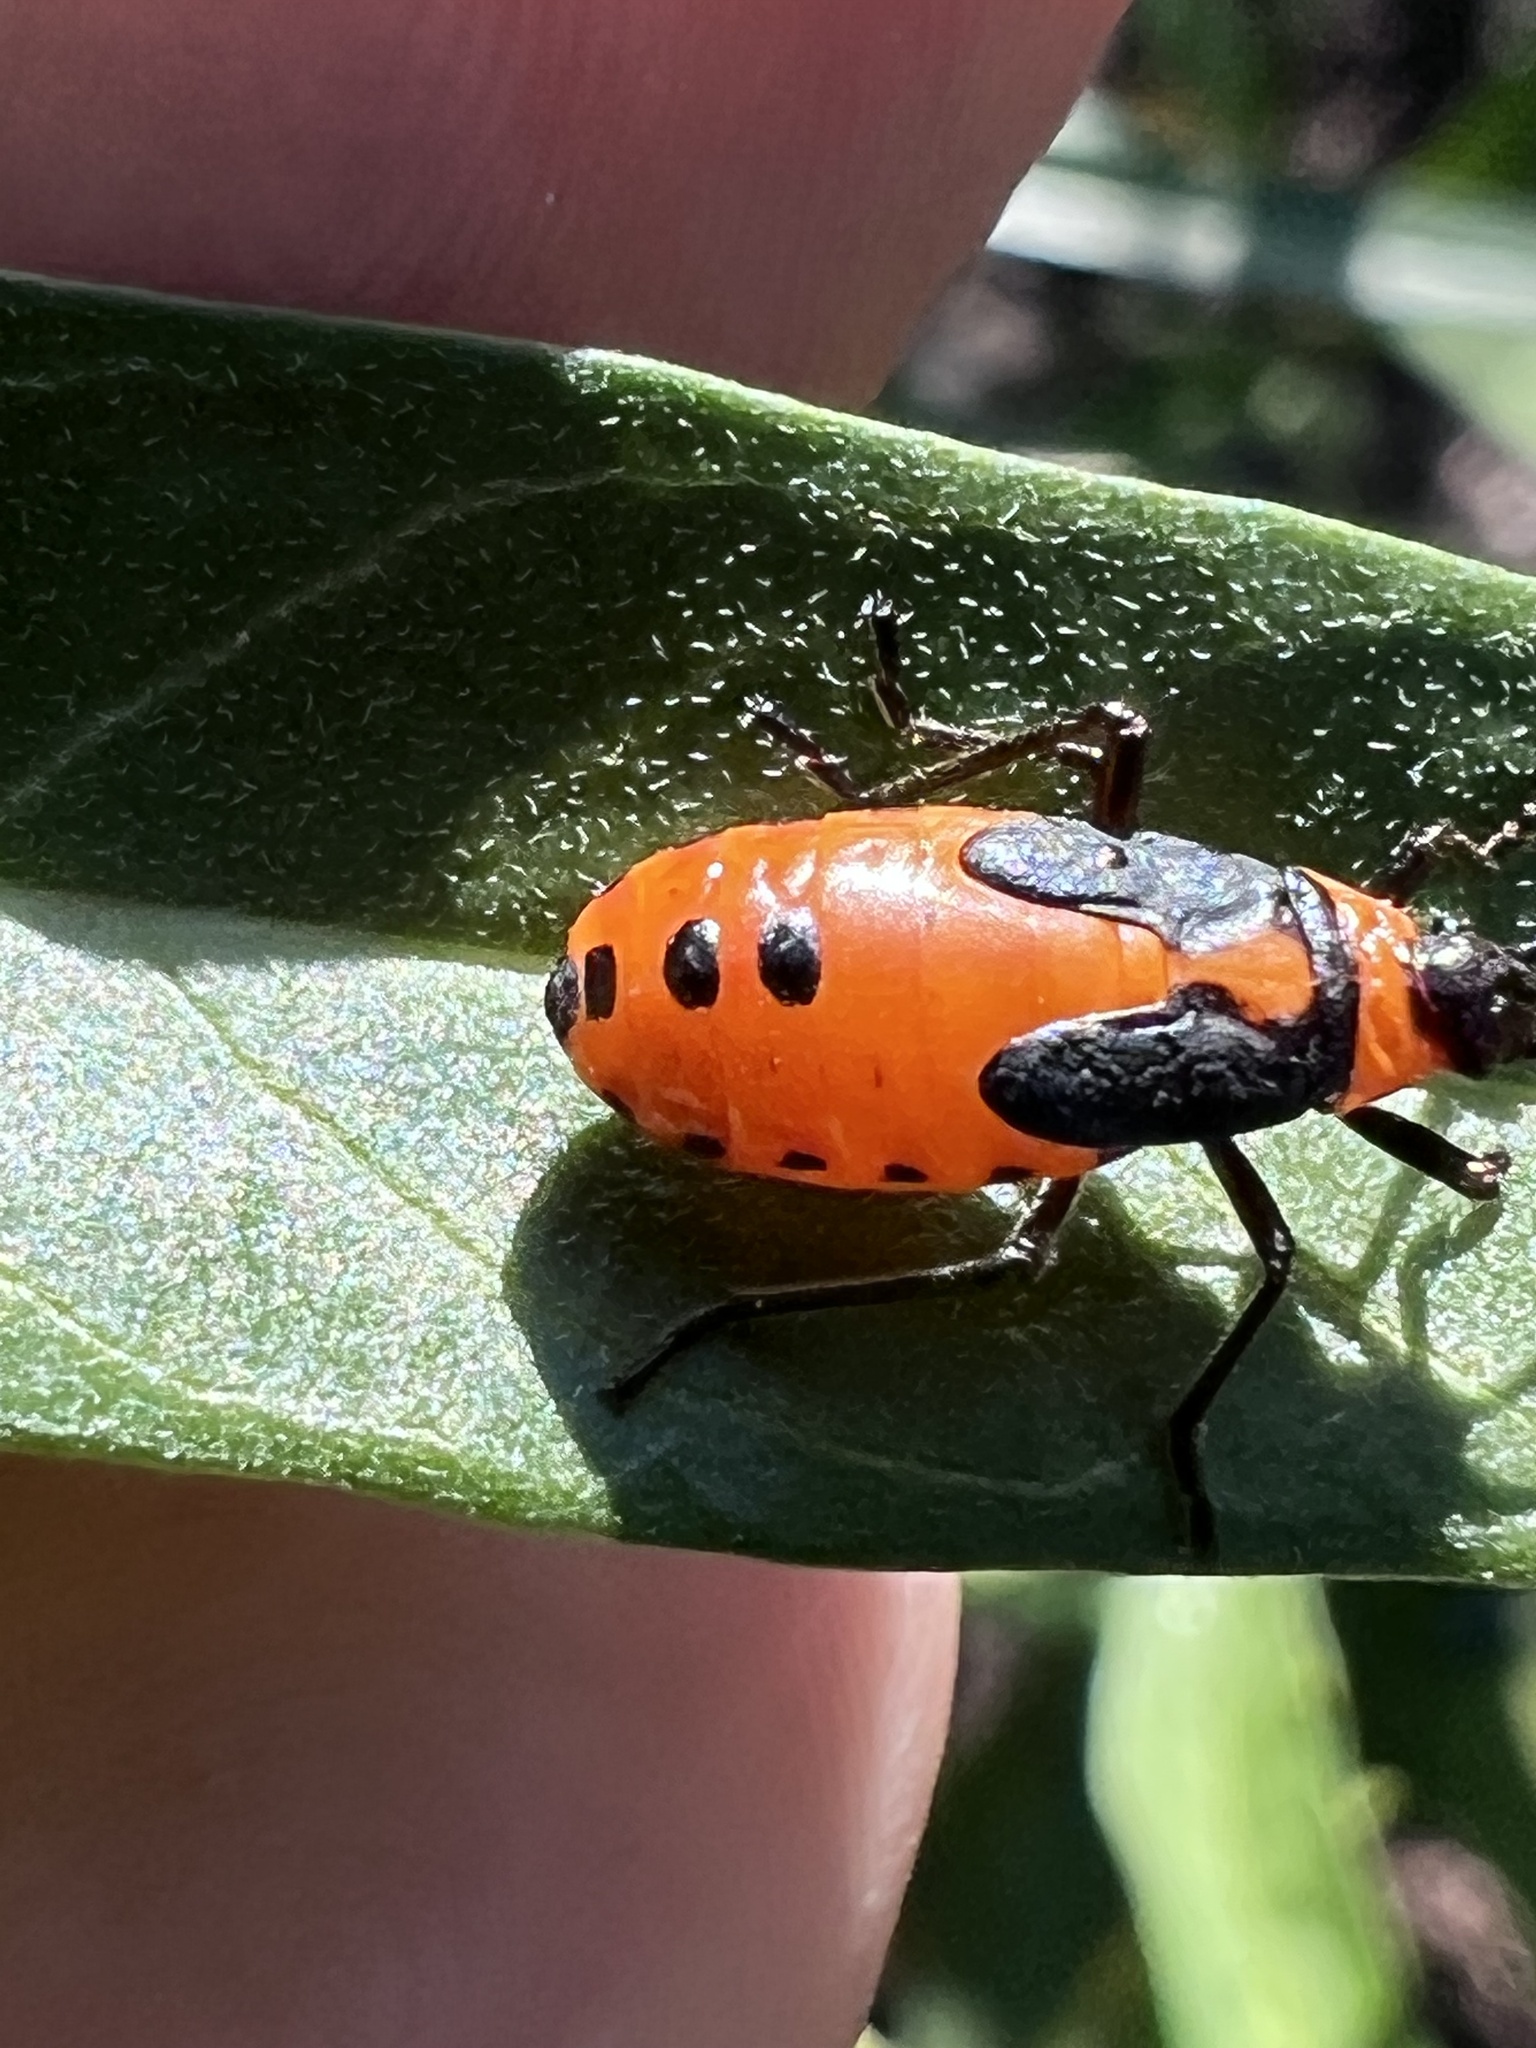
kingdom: Animalia
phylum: Arthropoda
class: Insecta
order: Hemiptera
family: Lygaeidae
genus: Oncopeltus
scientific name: Oncopeltus fasciatus
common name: Large milkweed bug
